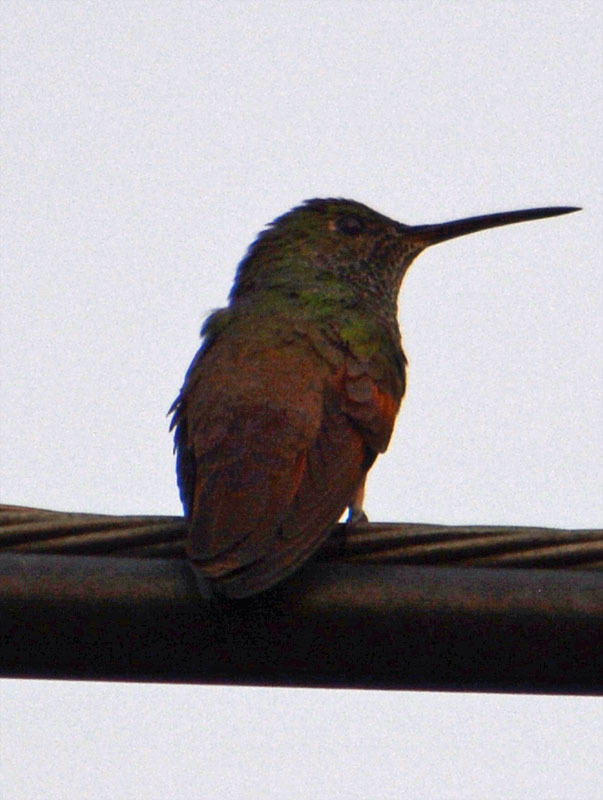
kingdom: Animalia
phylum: Chordata
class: Aves
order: Apodiformes
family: Trochilidae
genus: Saucerottia
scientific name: Saucerottia beryllina
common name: Berylline hummingbird
